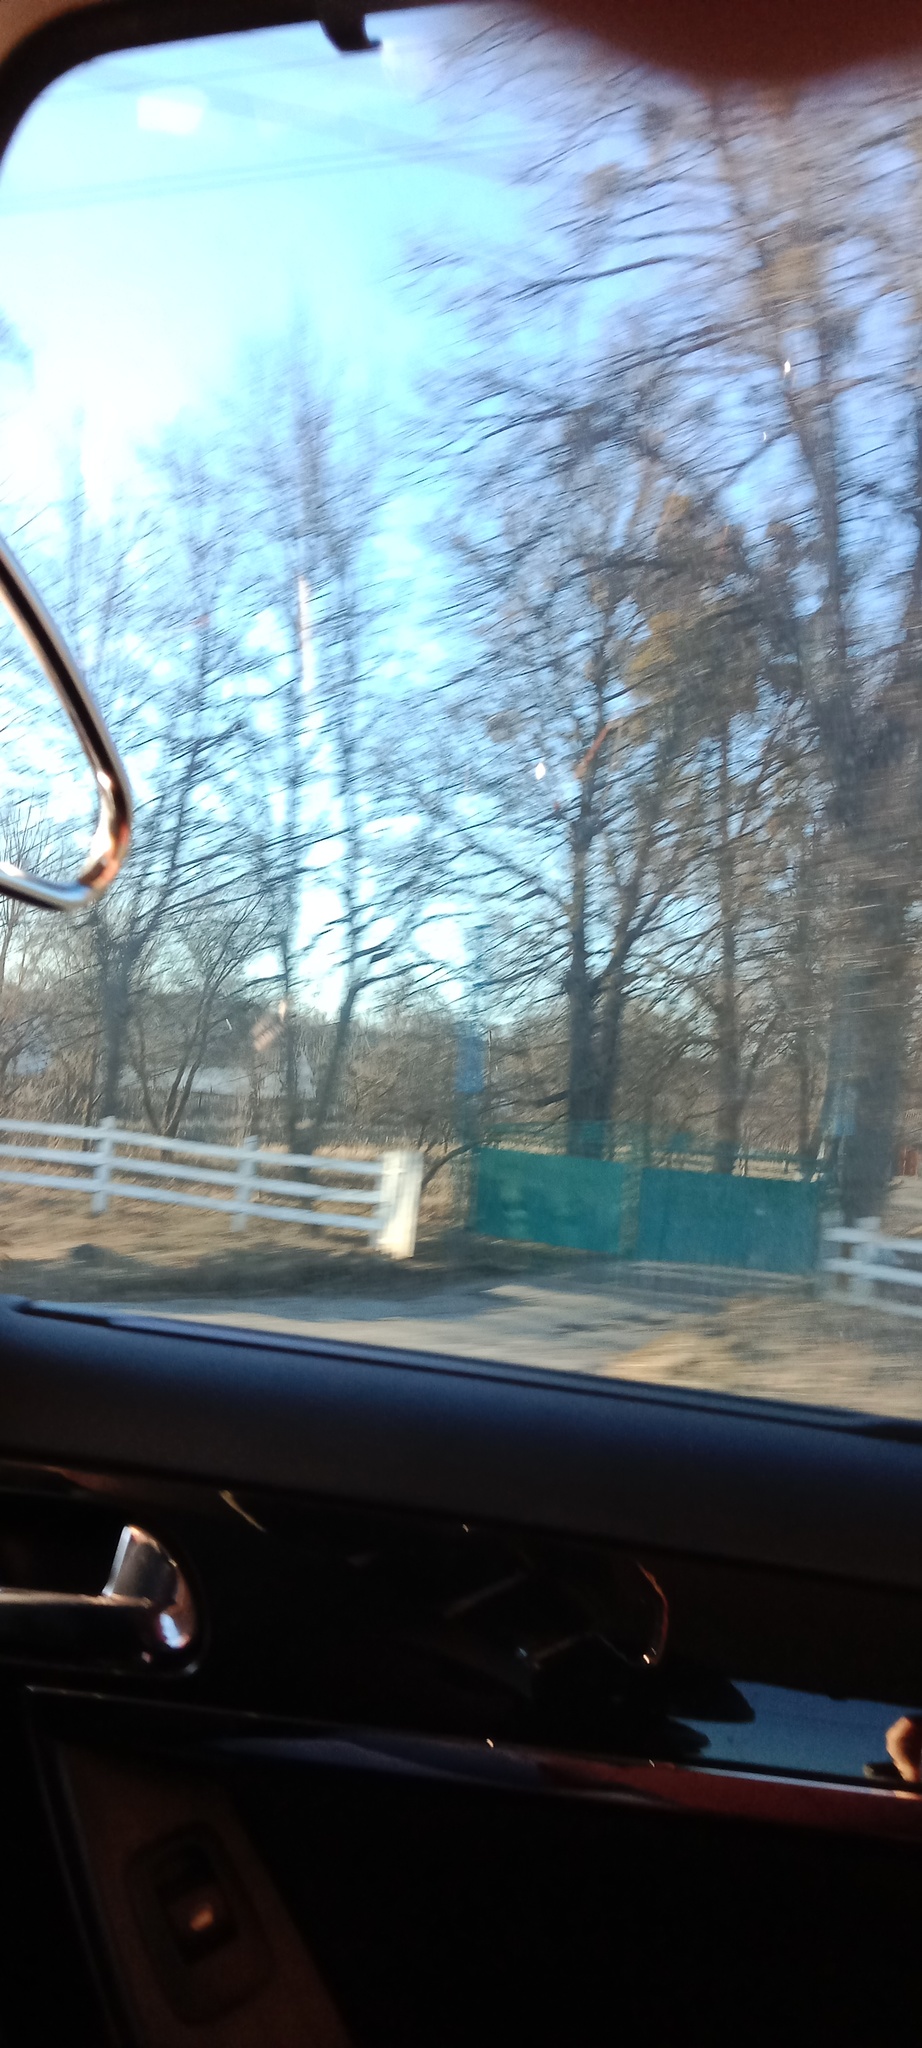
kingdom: Plantae
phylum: Tracheophyta
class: Magnoliopsida
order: Santalales
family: Viscaceae
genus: Viscum
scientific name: Viscum album
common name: Mistletoe
